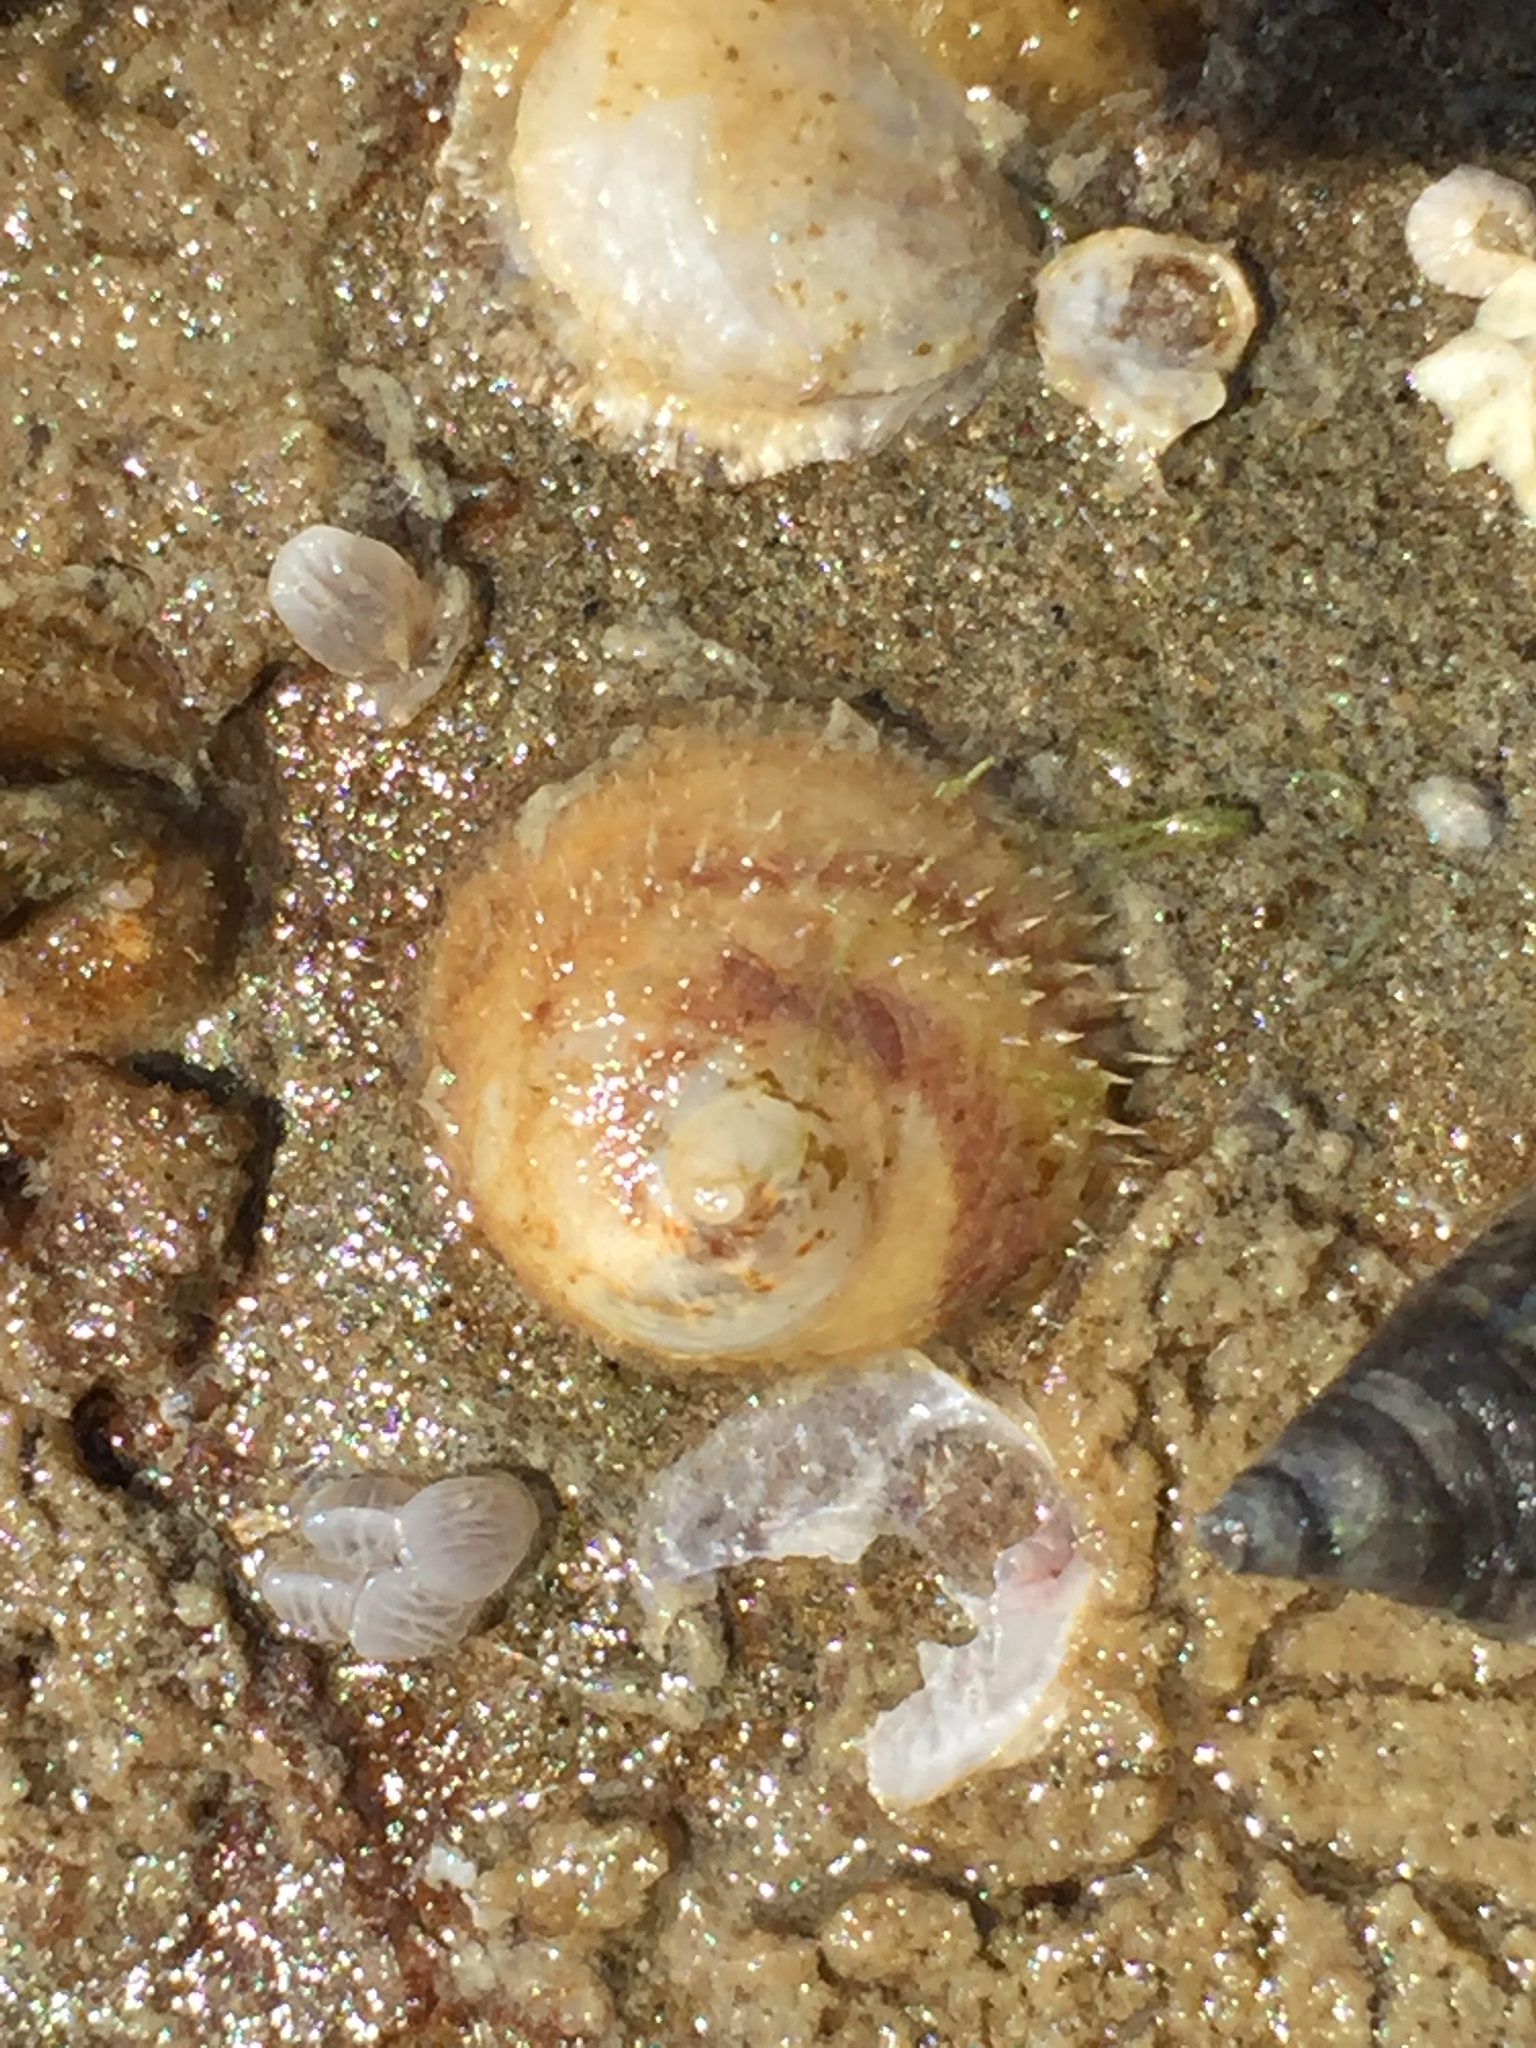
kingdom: Animalia
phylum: Mollusca
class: Gastropoda
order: Littorinimorpha
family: Calyptraeidae
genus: Sigapatella
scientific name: Sigapatella novaezelandiae
